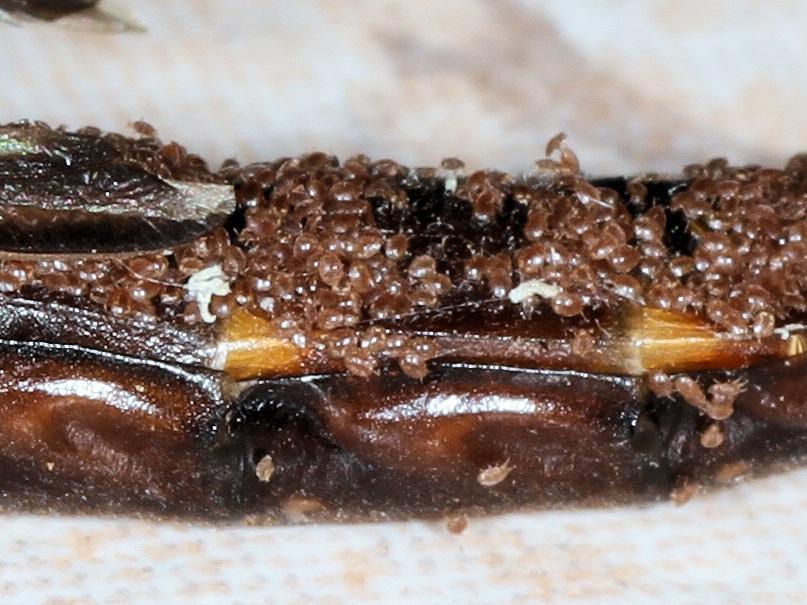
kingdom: Animalia
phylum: Arthropoda
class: Insecta
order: Coleoptera
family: Lymexylidae
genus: Atractocerus
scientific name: Atractocerus brevicornis
